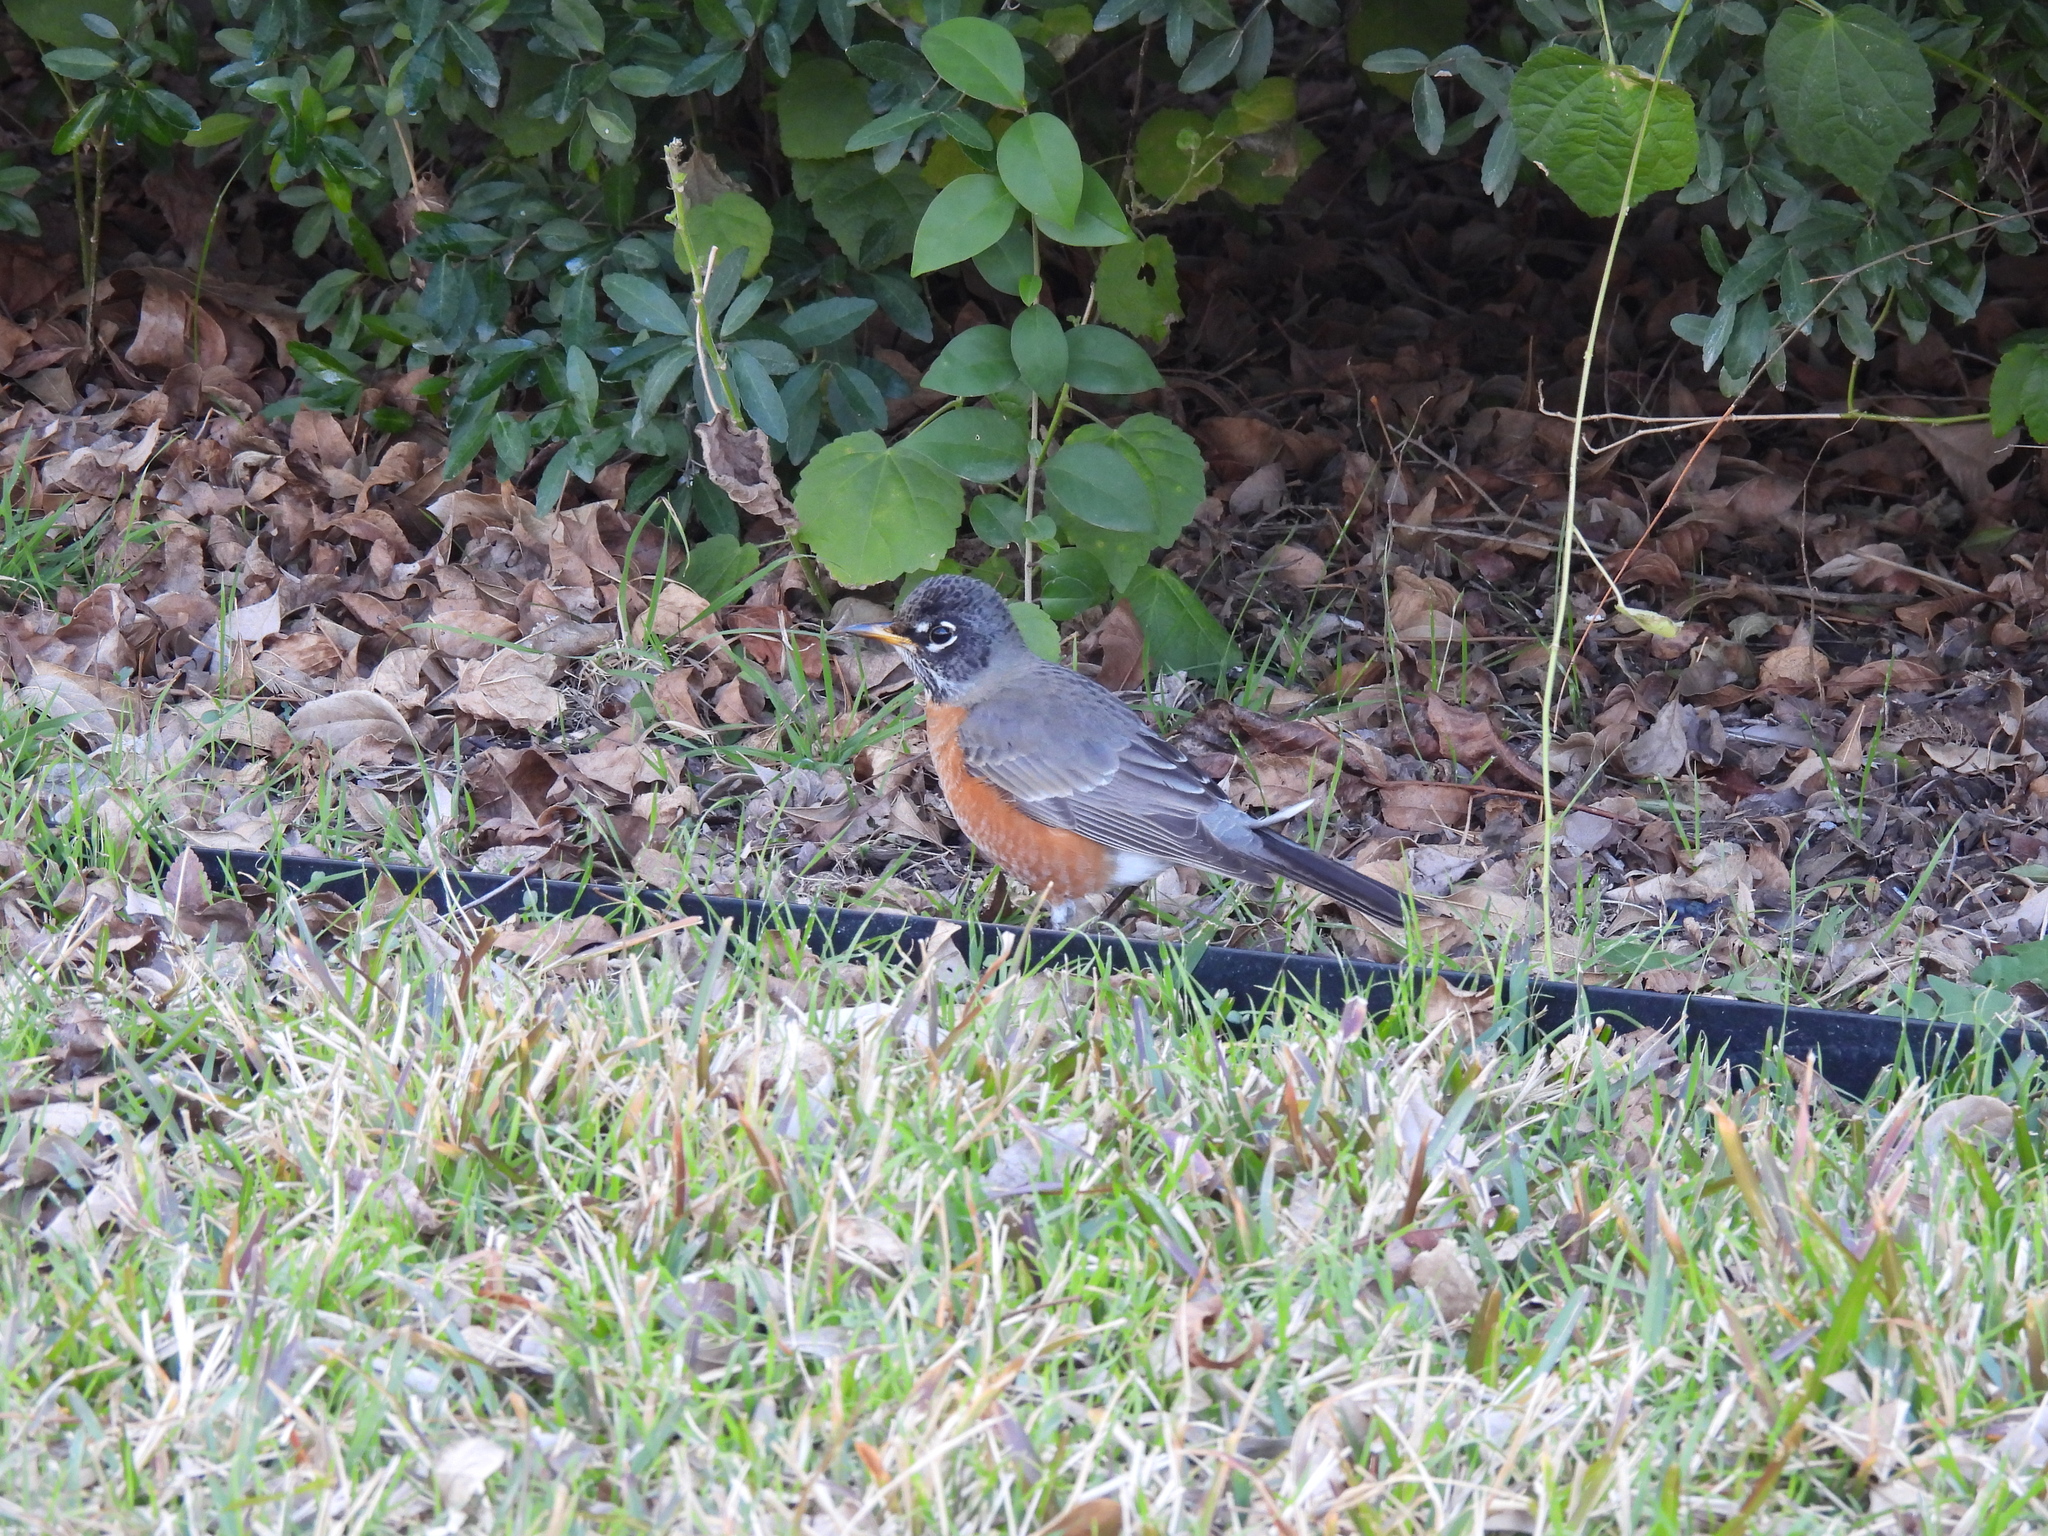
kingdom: Animalia
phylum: Chordata
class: Aves
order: Passeriformes
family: Turdidae
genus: Turdus
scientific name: Turdus migratorius
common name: American robin
